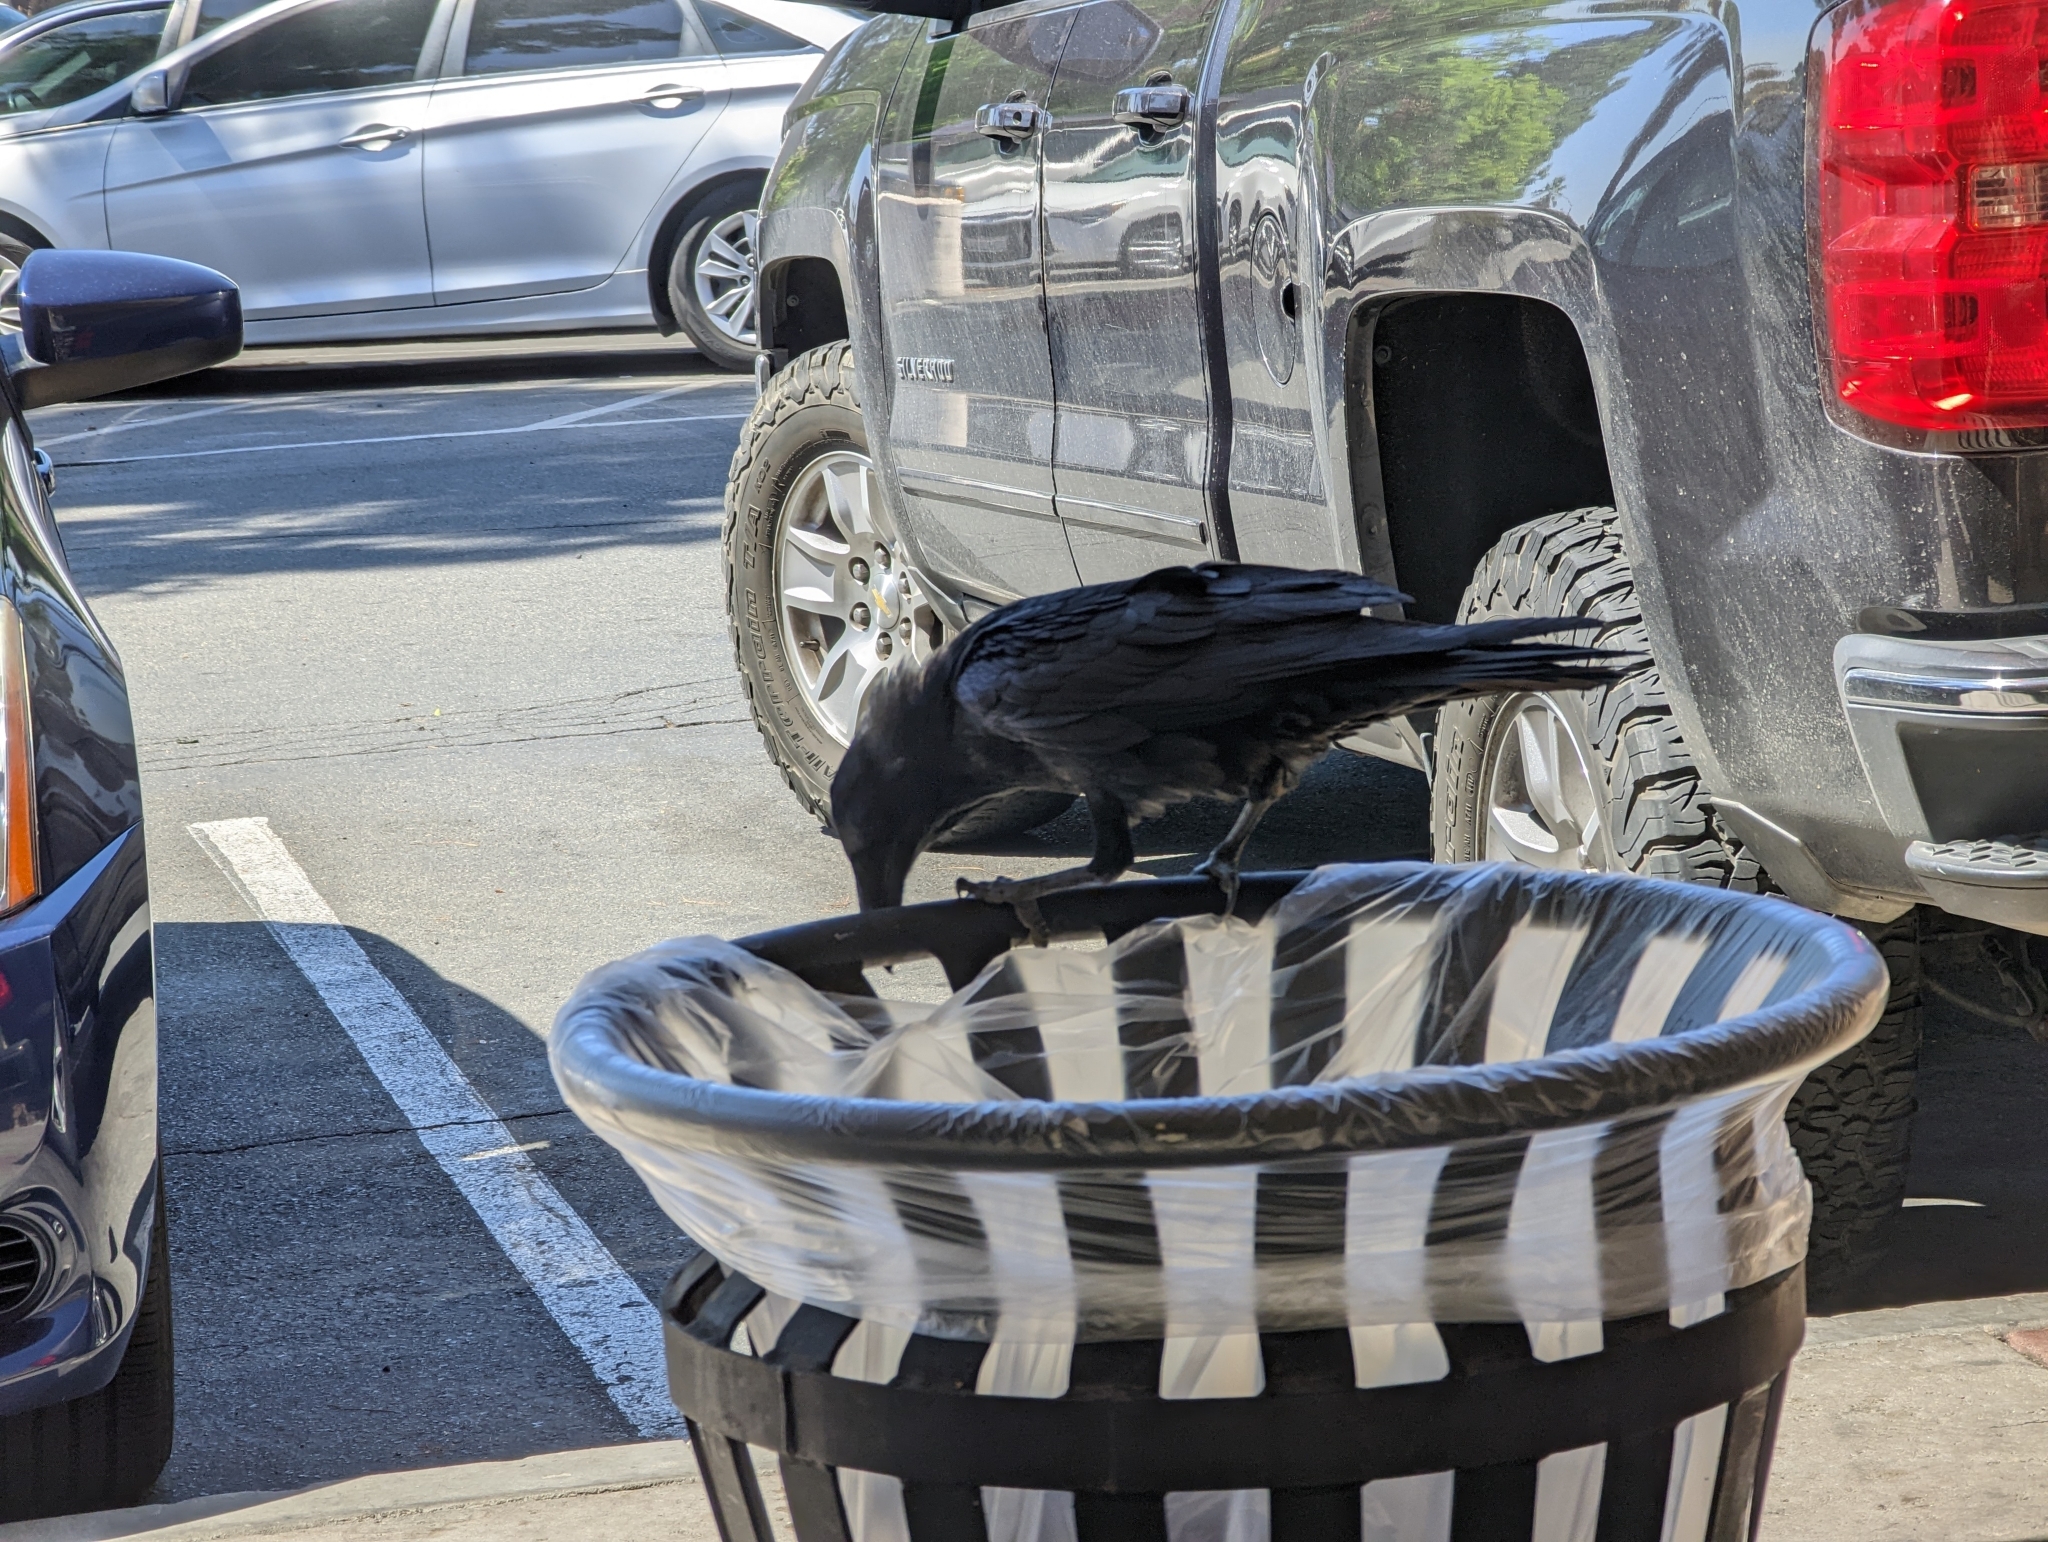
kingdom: Animalia
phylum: Chordata
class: Aves
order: Passeriformes
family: Corvidae
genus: Corvus
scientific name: Corvus corax
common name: Common raven
